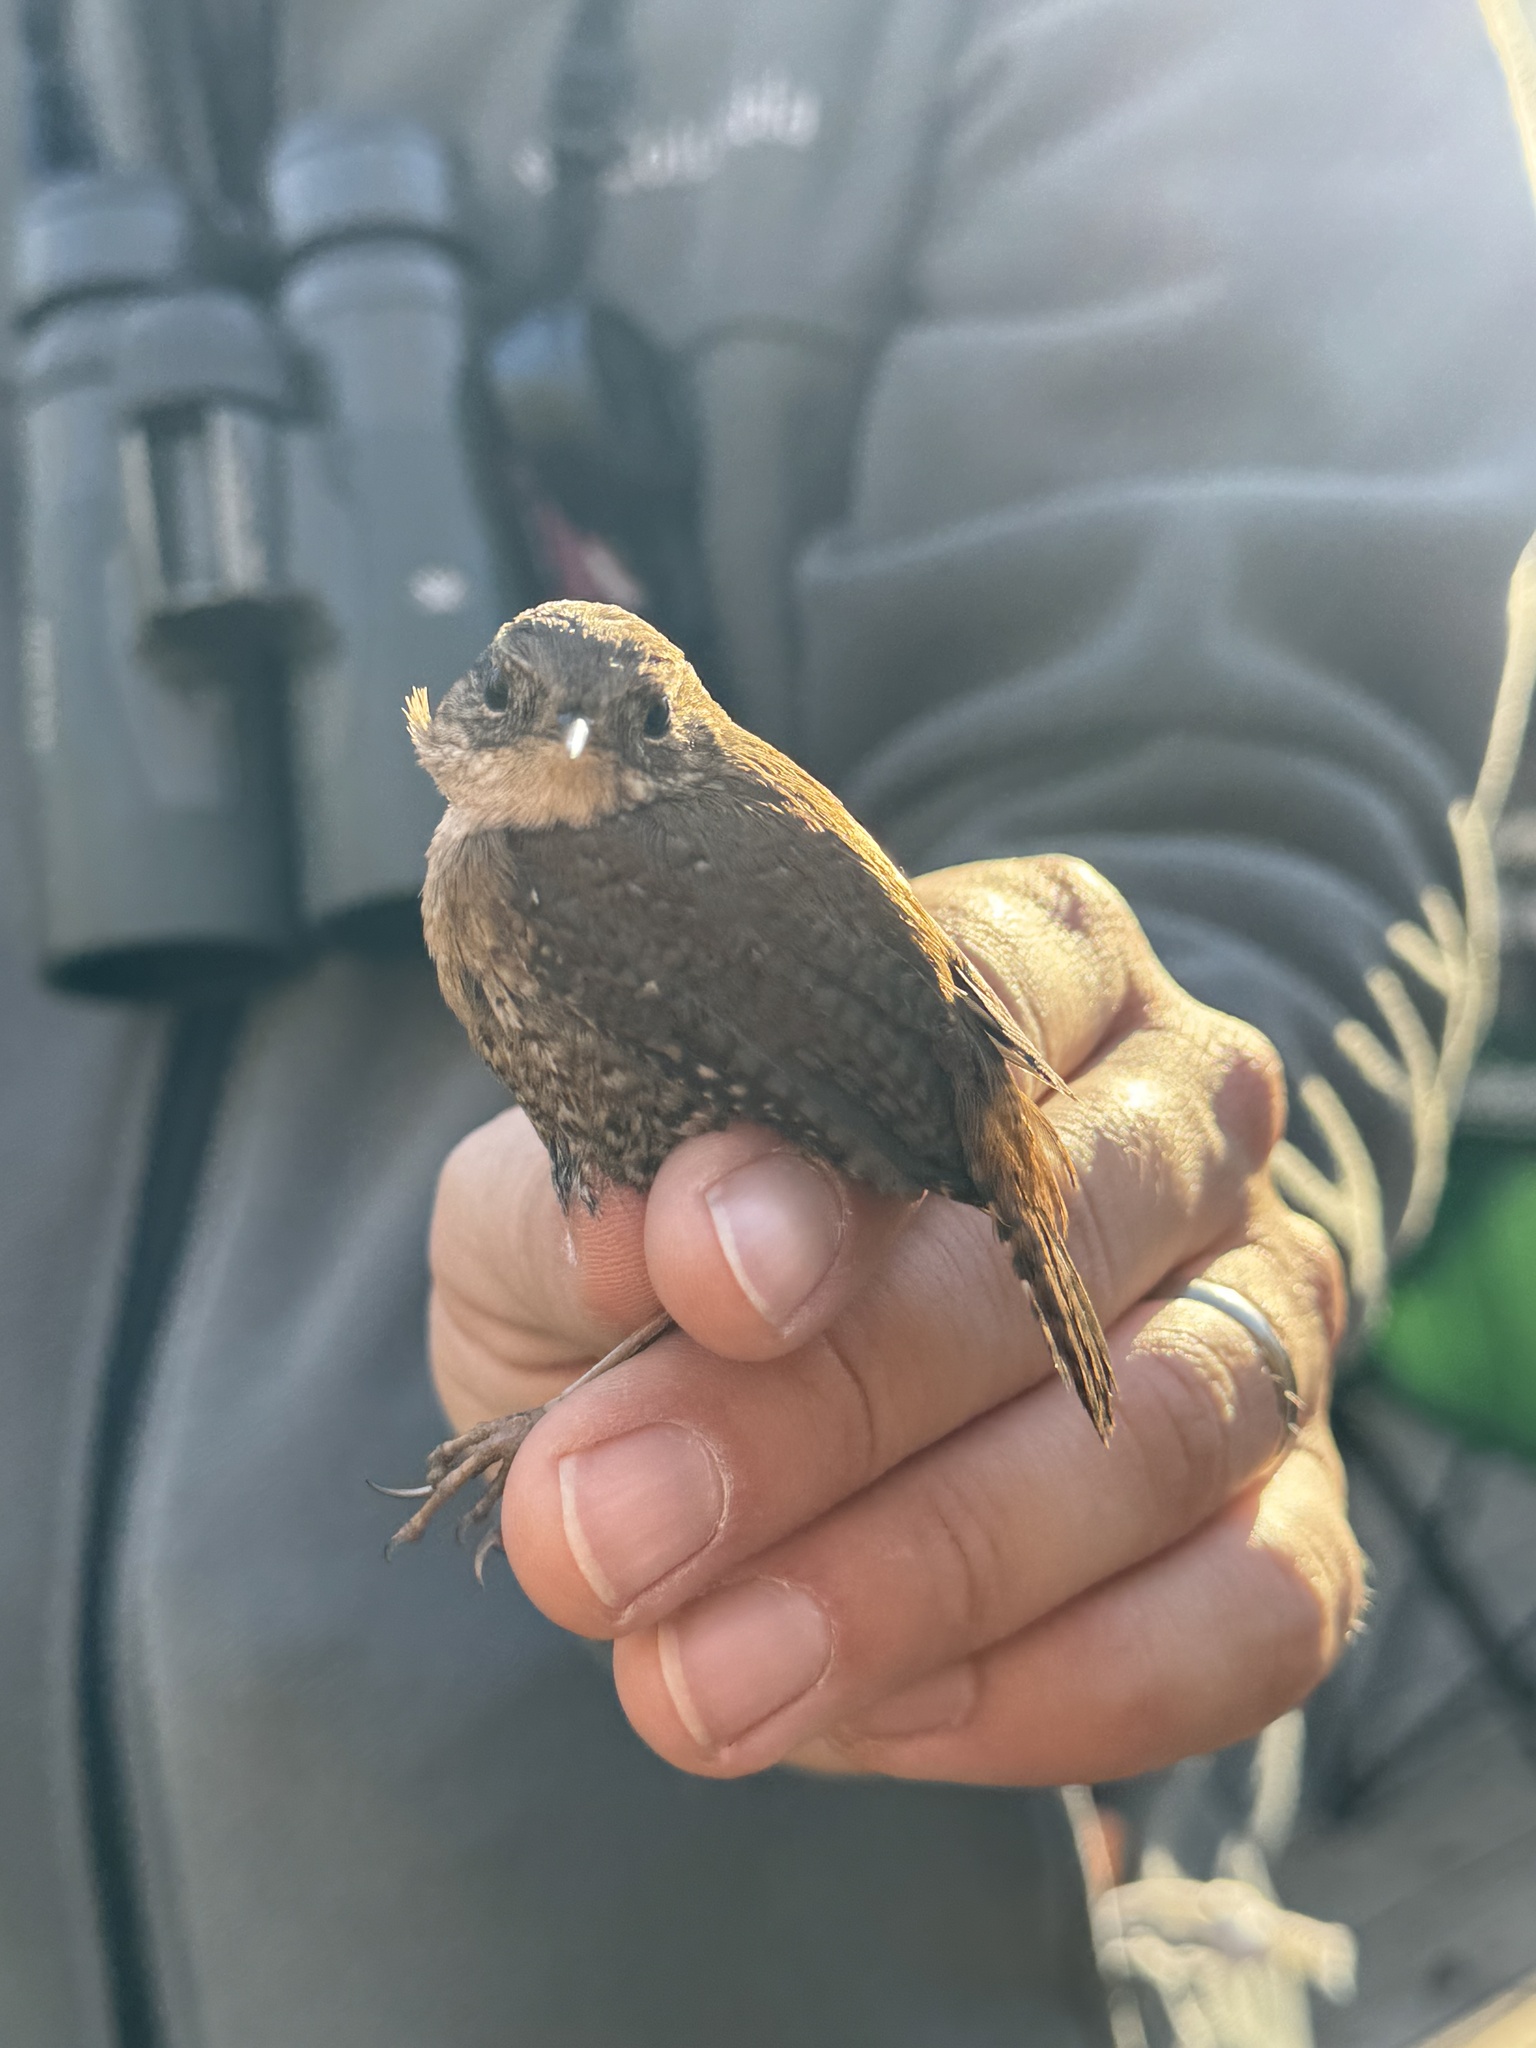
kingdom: Animalia
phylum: Chordata
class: Aves
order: Passeriformes
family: Troglodytidae
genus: Troglodytes
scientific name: Troglodytes hiemalis
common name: Winter wren
